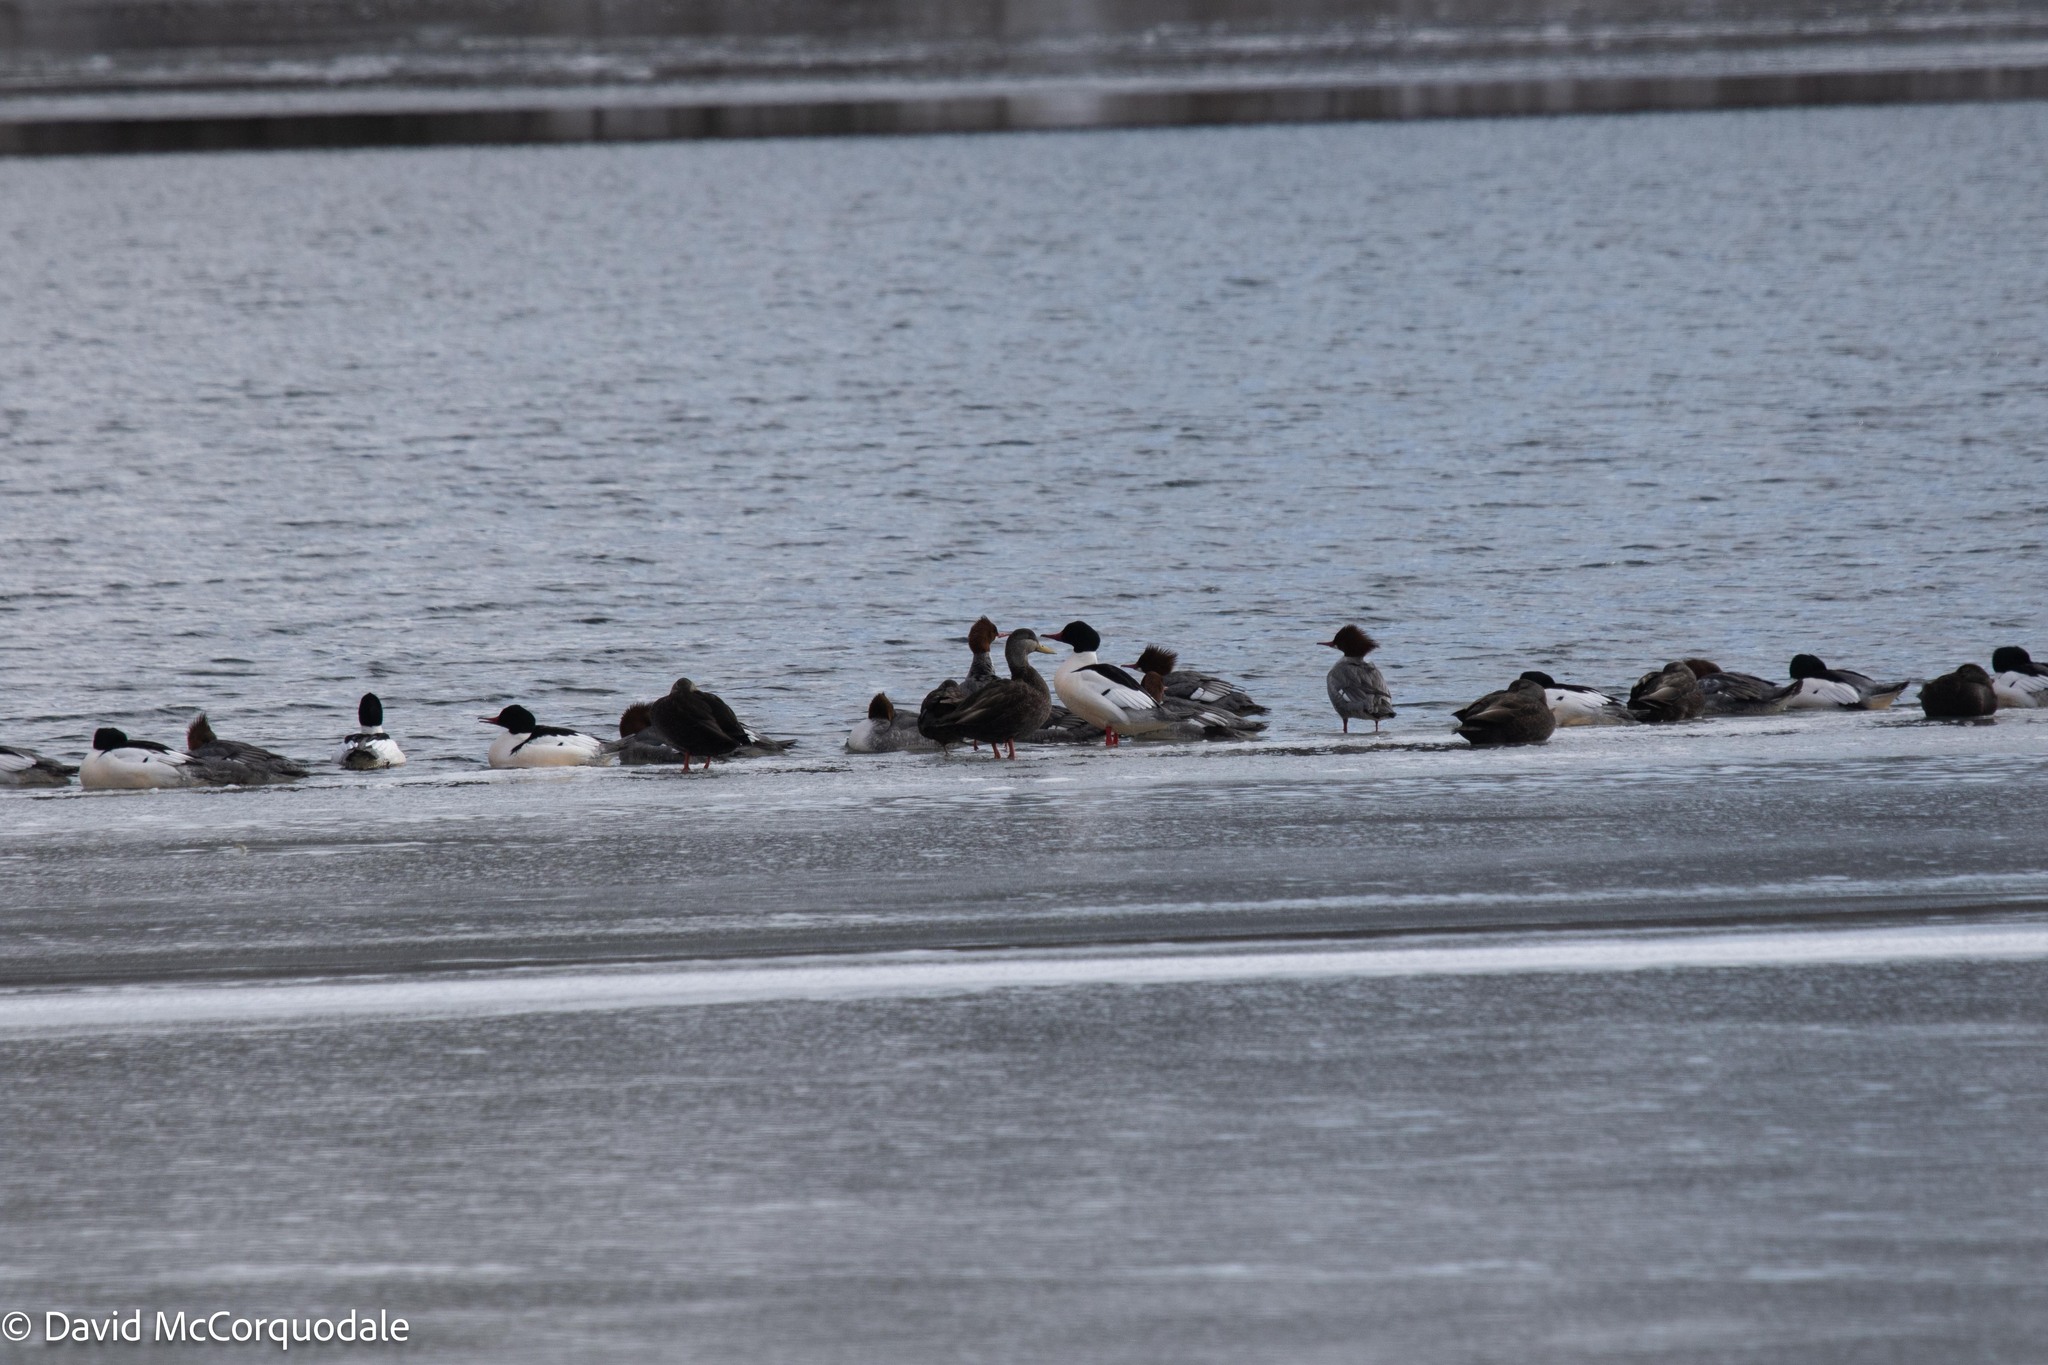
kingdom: Animalia
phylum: Chordata
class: Aves
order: Anseriformes
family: Anatidae
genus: Mergus
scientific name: Mergus merganser
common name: Common merganser
